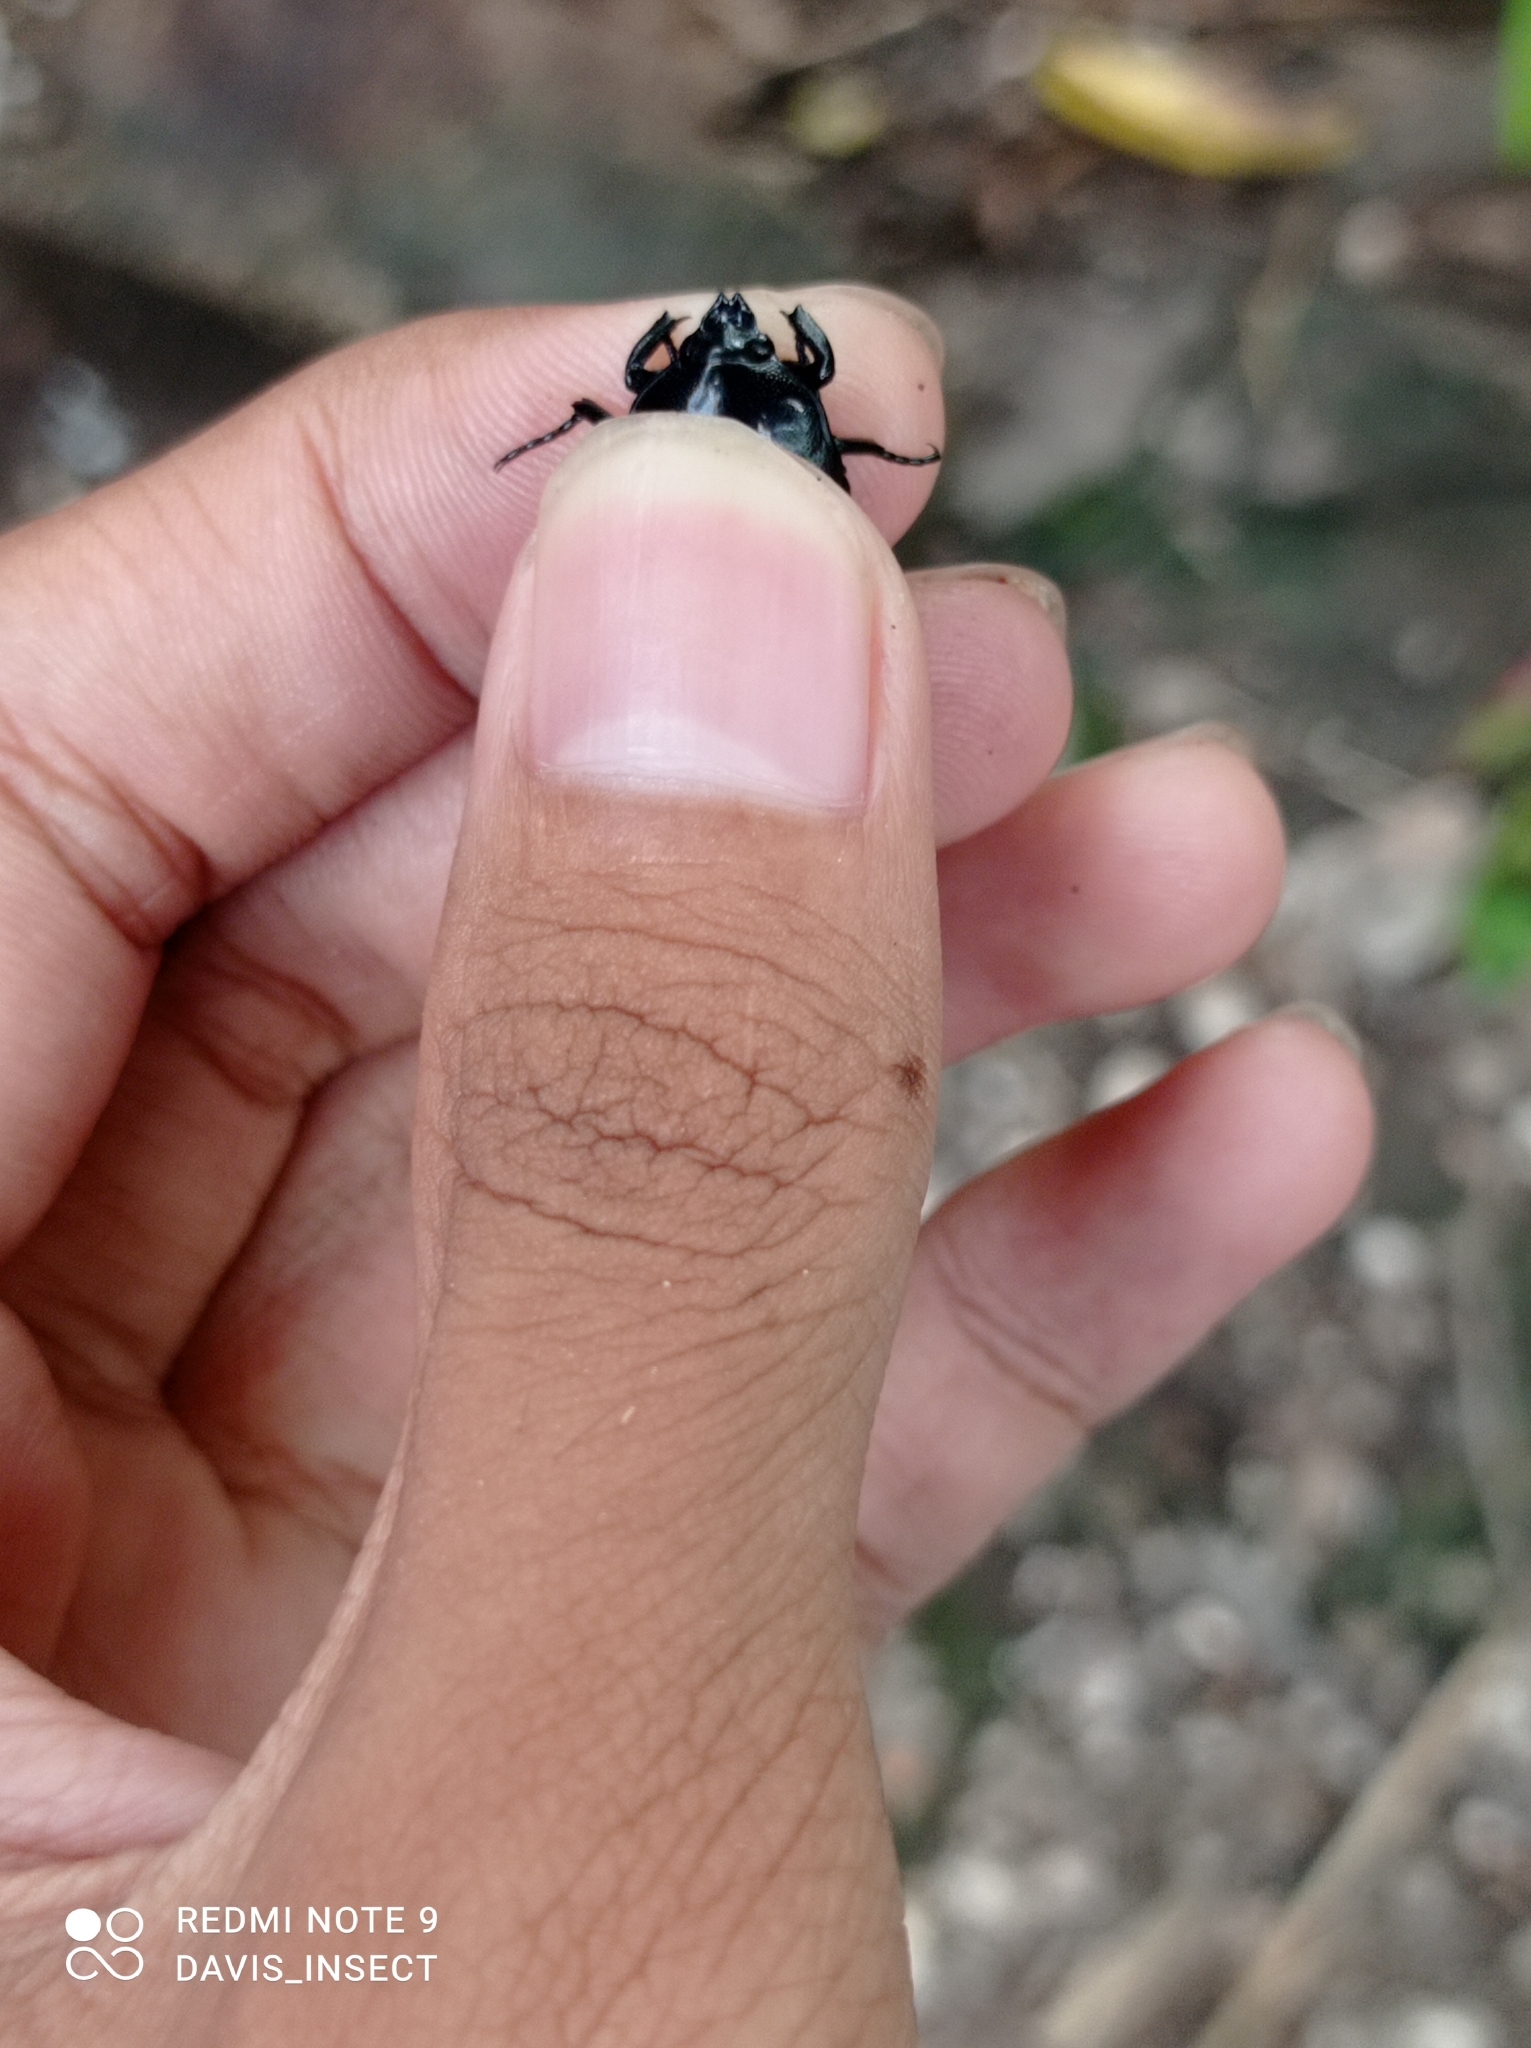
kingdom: Animalia
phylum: Arthropoda
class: Insecta
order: Coleoptera
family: Scarabaeidae
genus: Dicheros
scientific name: Dicheros bicornis
